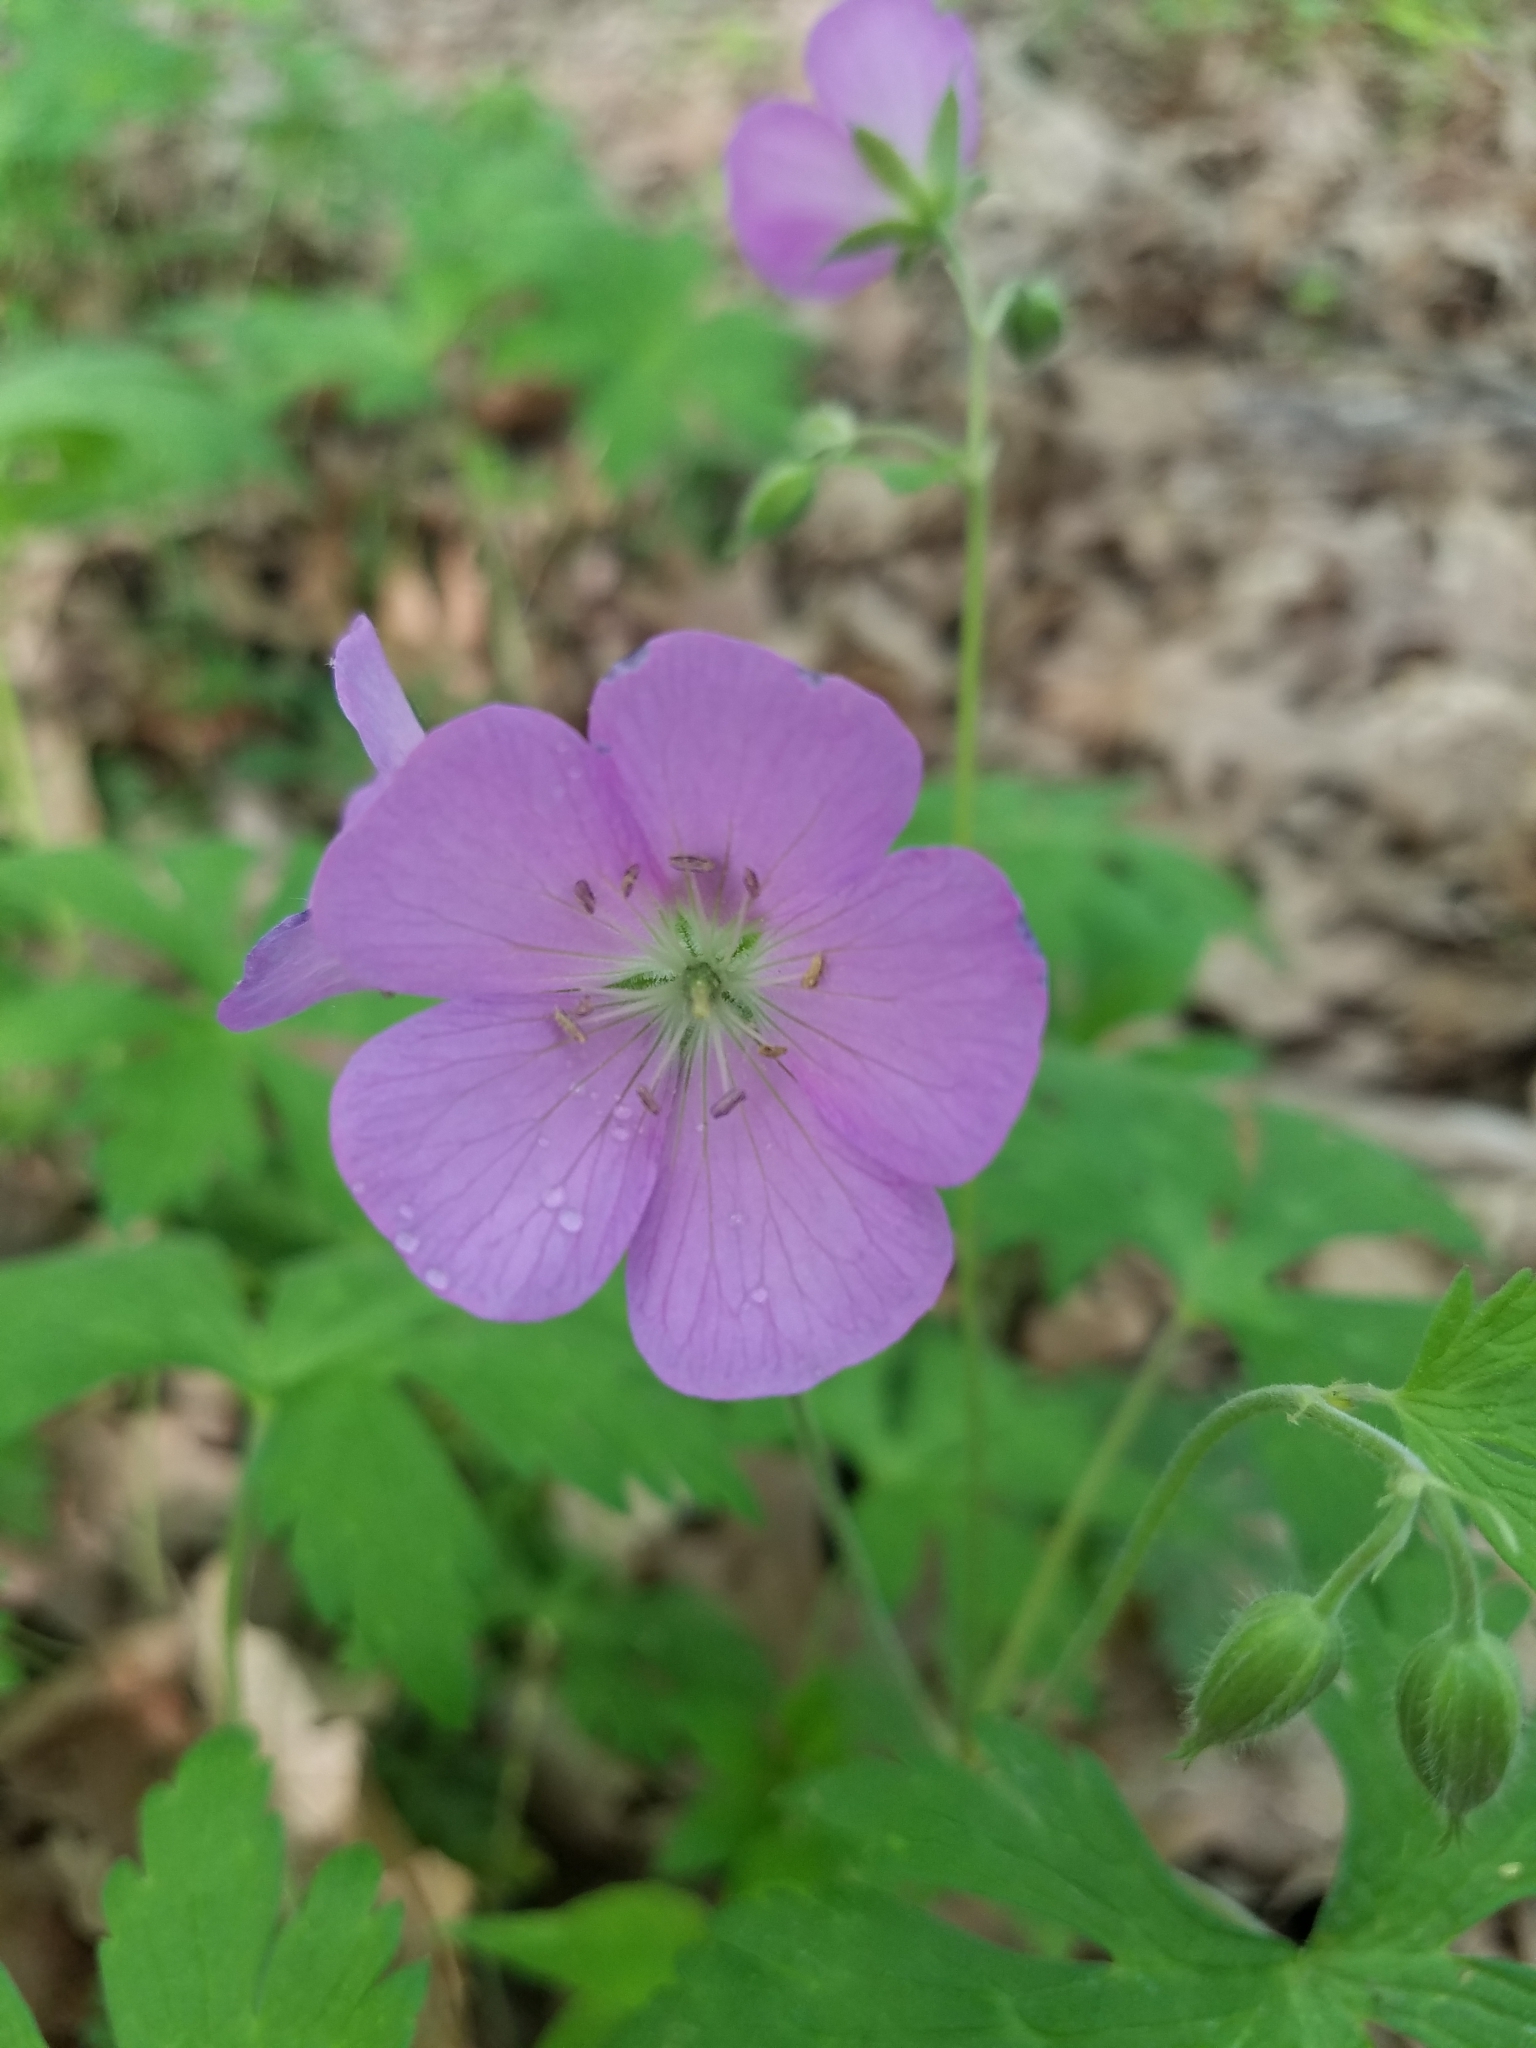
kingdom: Plantae
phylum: Tracheophyta
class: Magnoliopsida
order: Geraniales
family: Geraniaceae
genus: Geranium
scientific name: Geranium maculatum
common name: Spotted geranium
